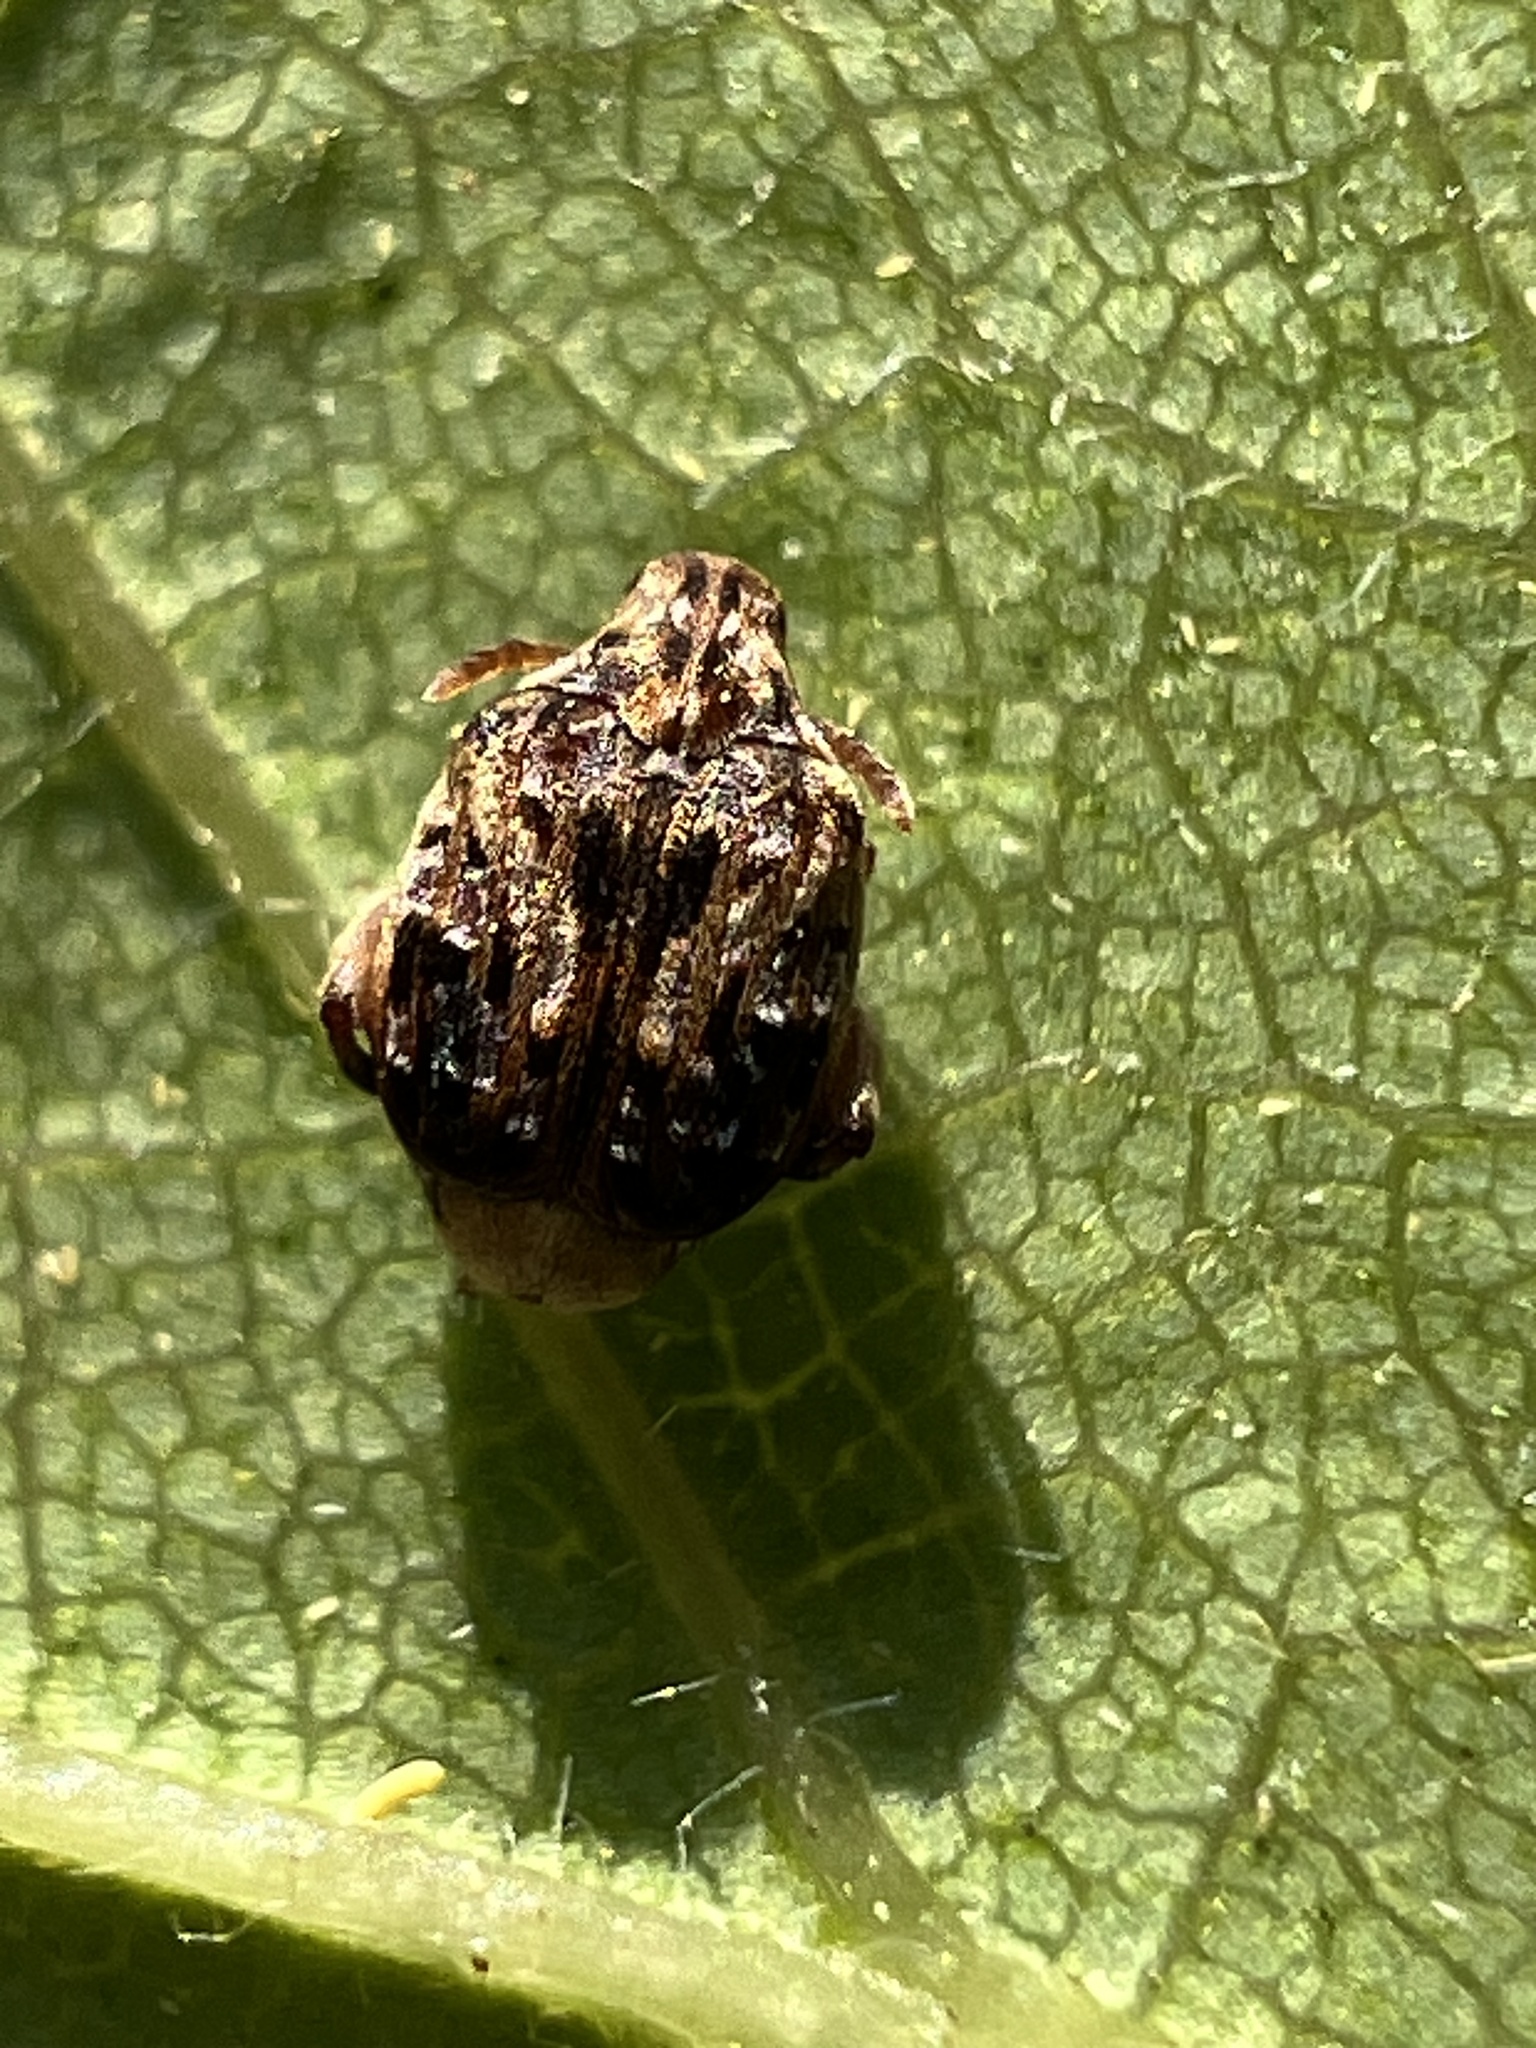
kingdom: Animalia
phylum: Arthropoda
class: Insecta
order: Coleoptera
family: Chrysomelidae
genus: Gibbobruchus
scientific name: Gibbobruchus mimus
